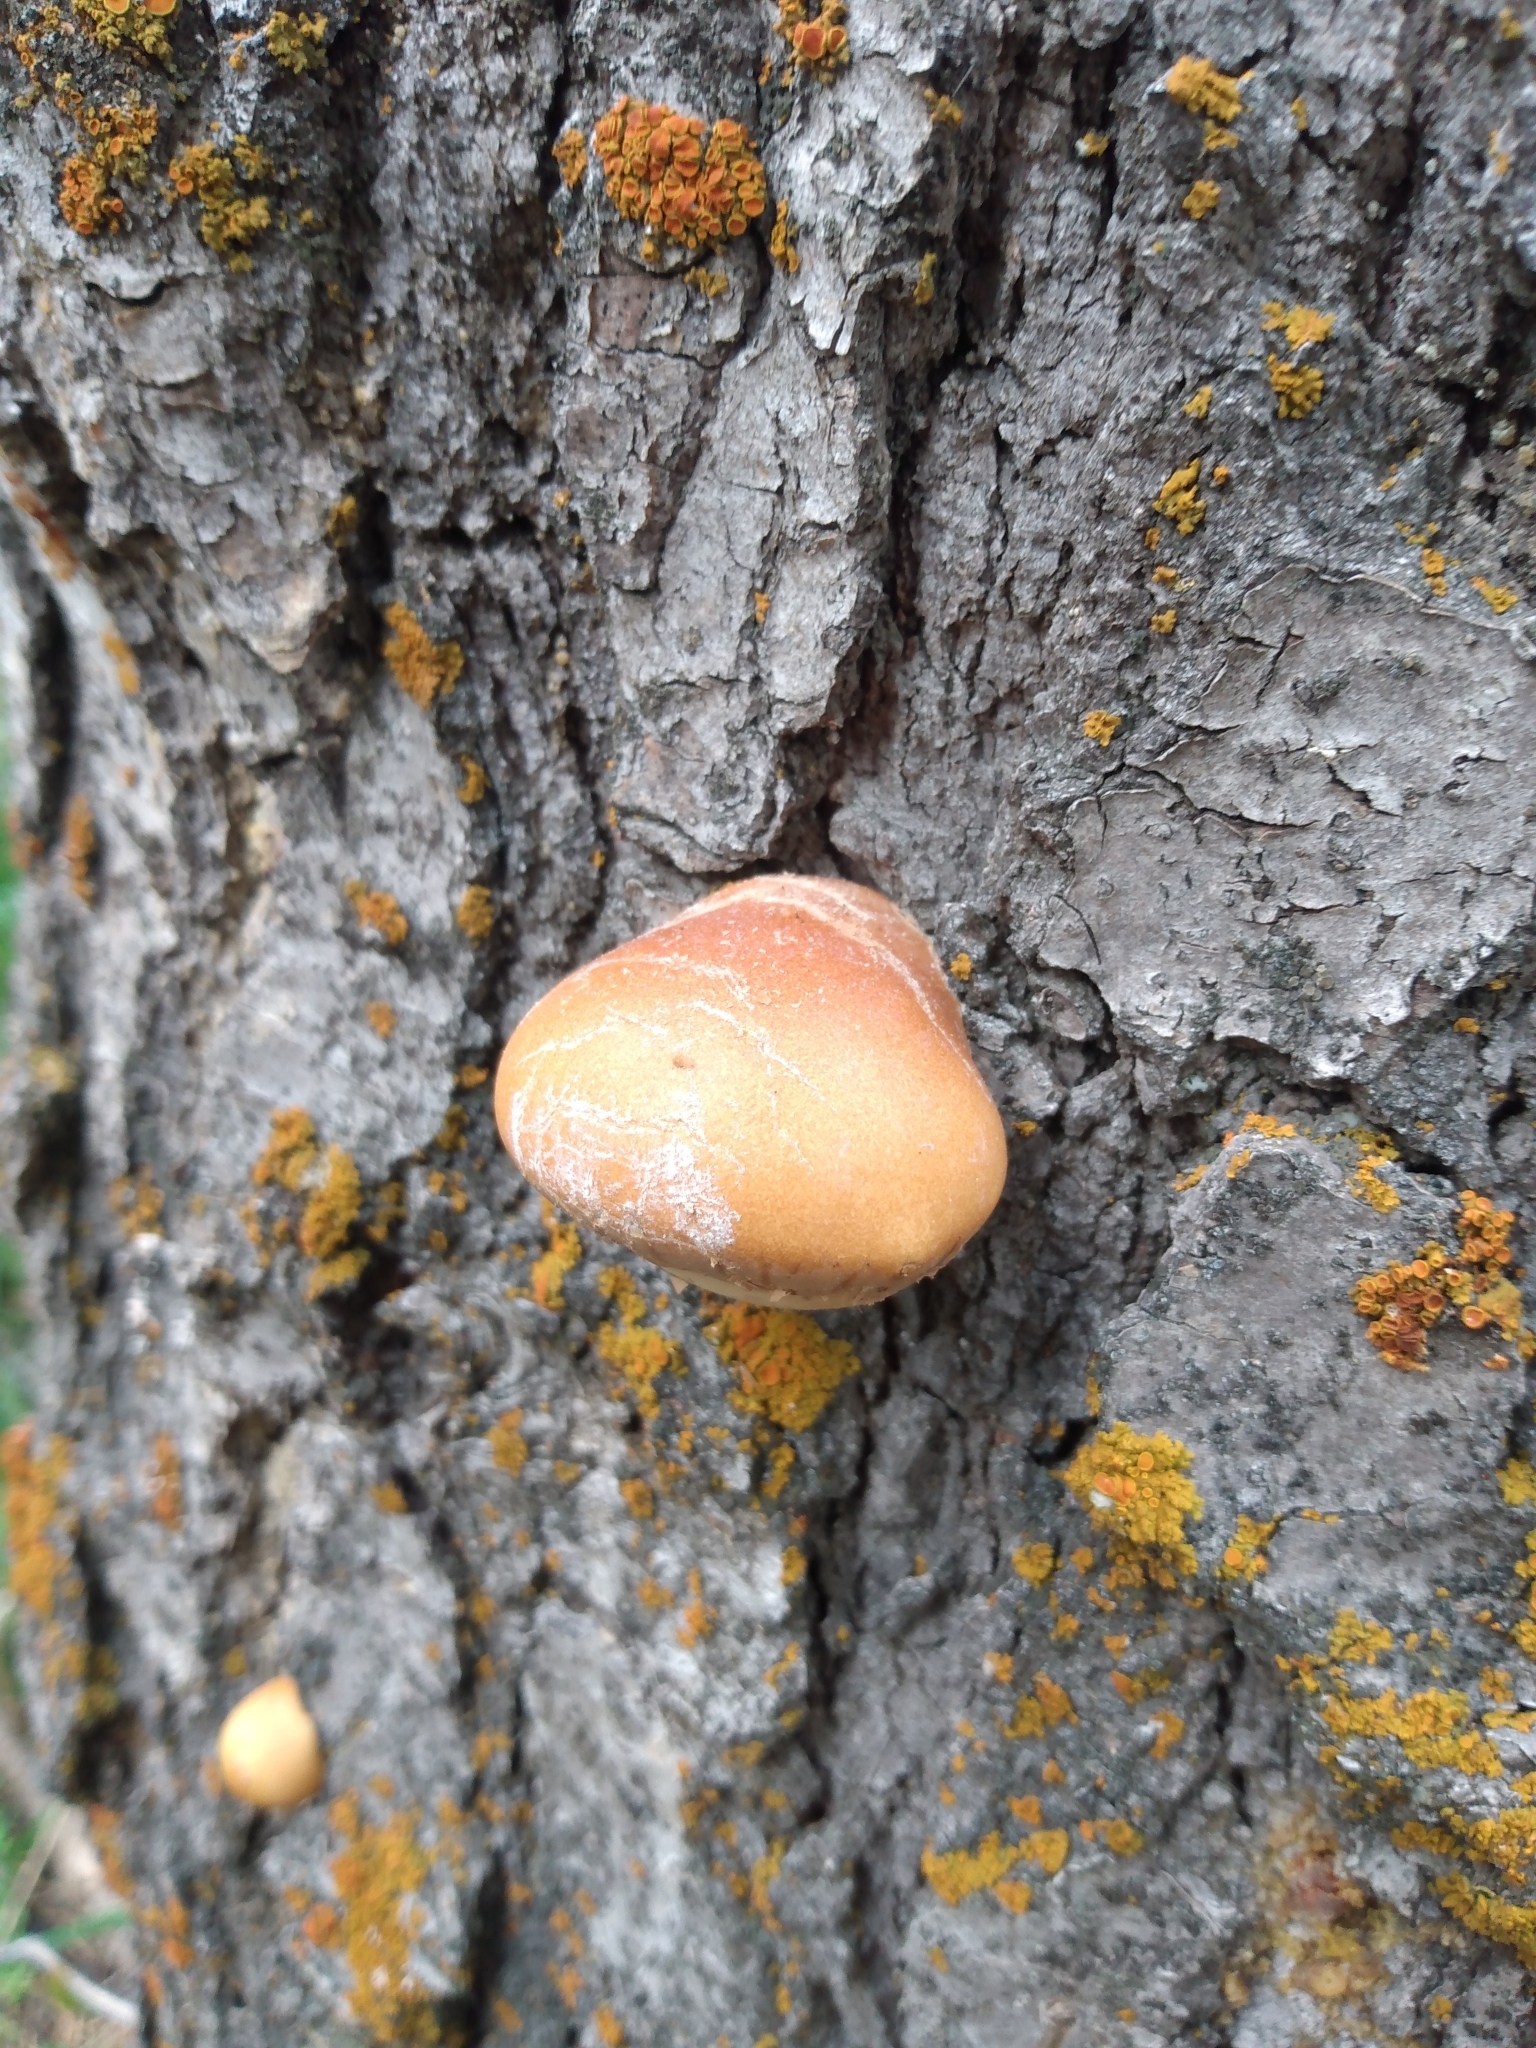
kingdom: Fungi
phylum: Basidiomycota
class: Agaricomycetes
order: Polyporales
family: Polyporaceae
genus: Cryptoporus
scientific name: Cryptoporus volvatus
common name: Veiled polypore
